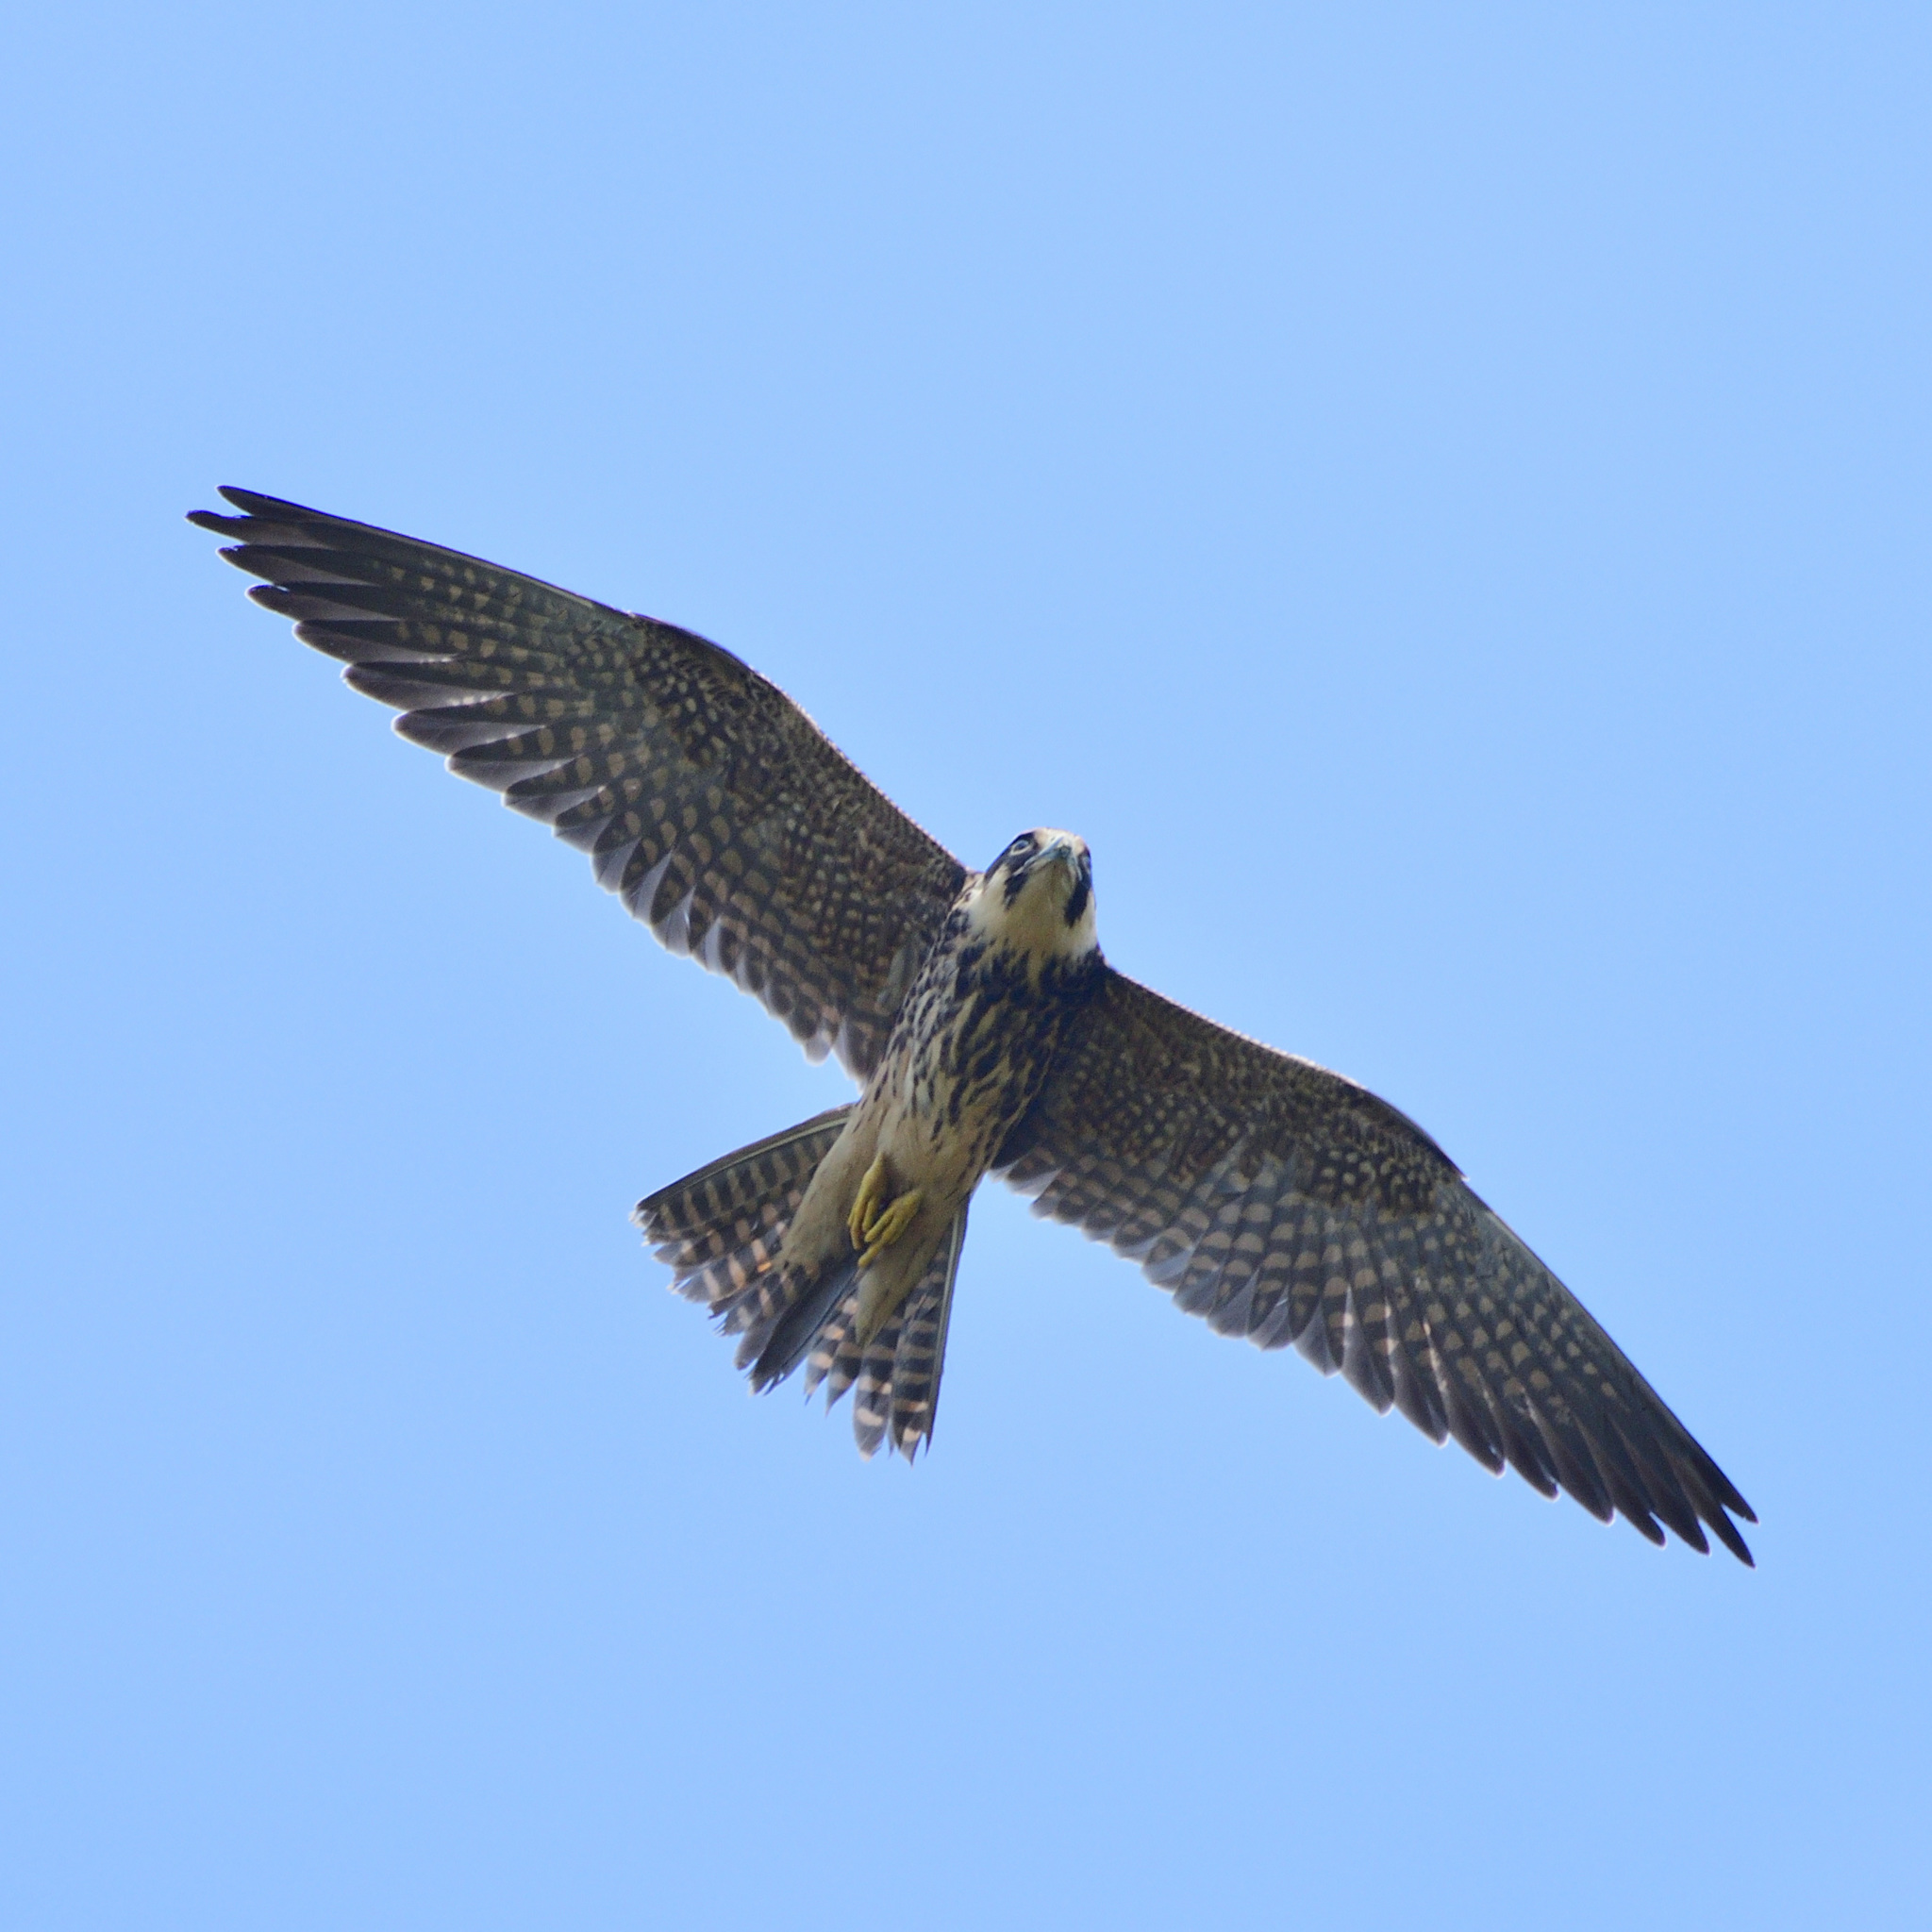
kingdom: Animalia
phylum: Chordata
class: Aves
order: Falconiformes
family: Falconidae
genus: Falco
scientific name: Falco subbuteo
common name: Eurasian hobby
